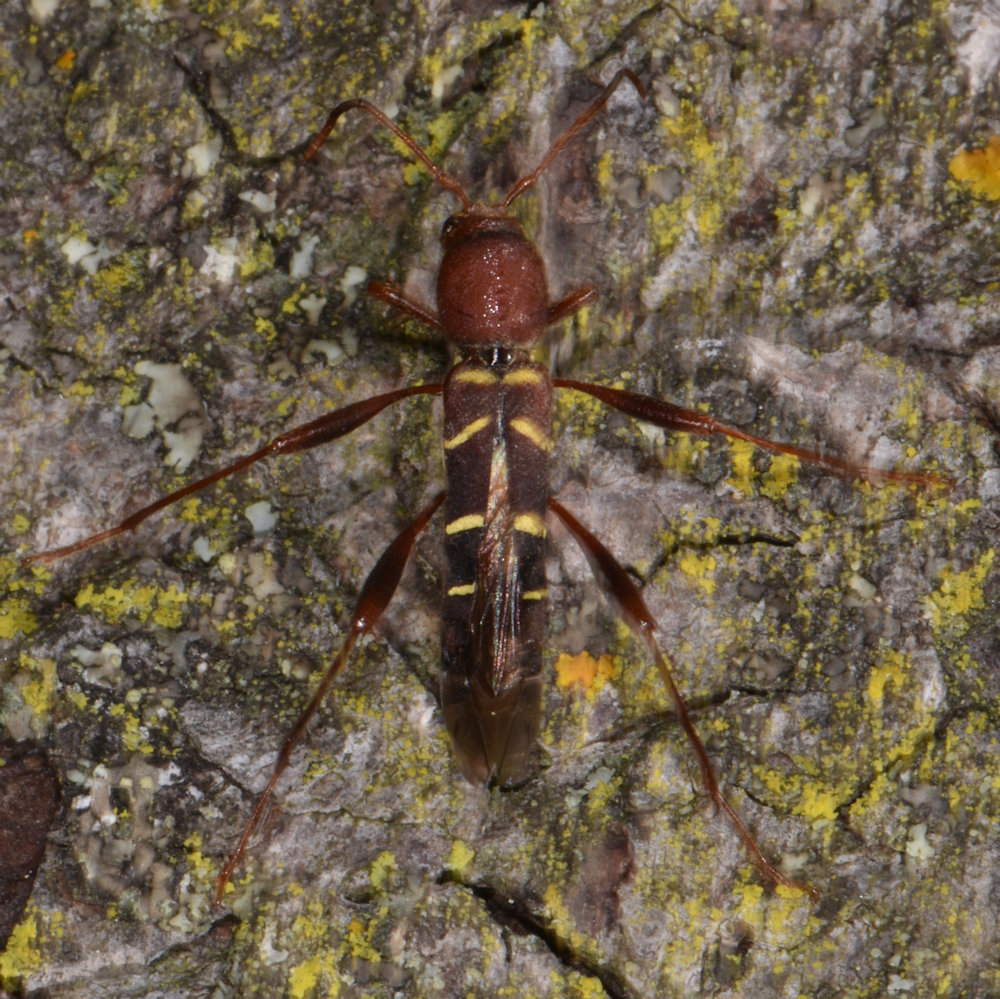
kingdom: Animalia
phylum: Arthropoda
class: Insecta
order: Coleoptera
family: Cerambycidae
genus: Neoclytus
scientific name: Neoclytus acuminatus
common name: Read-headed ash borer
